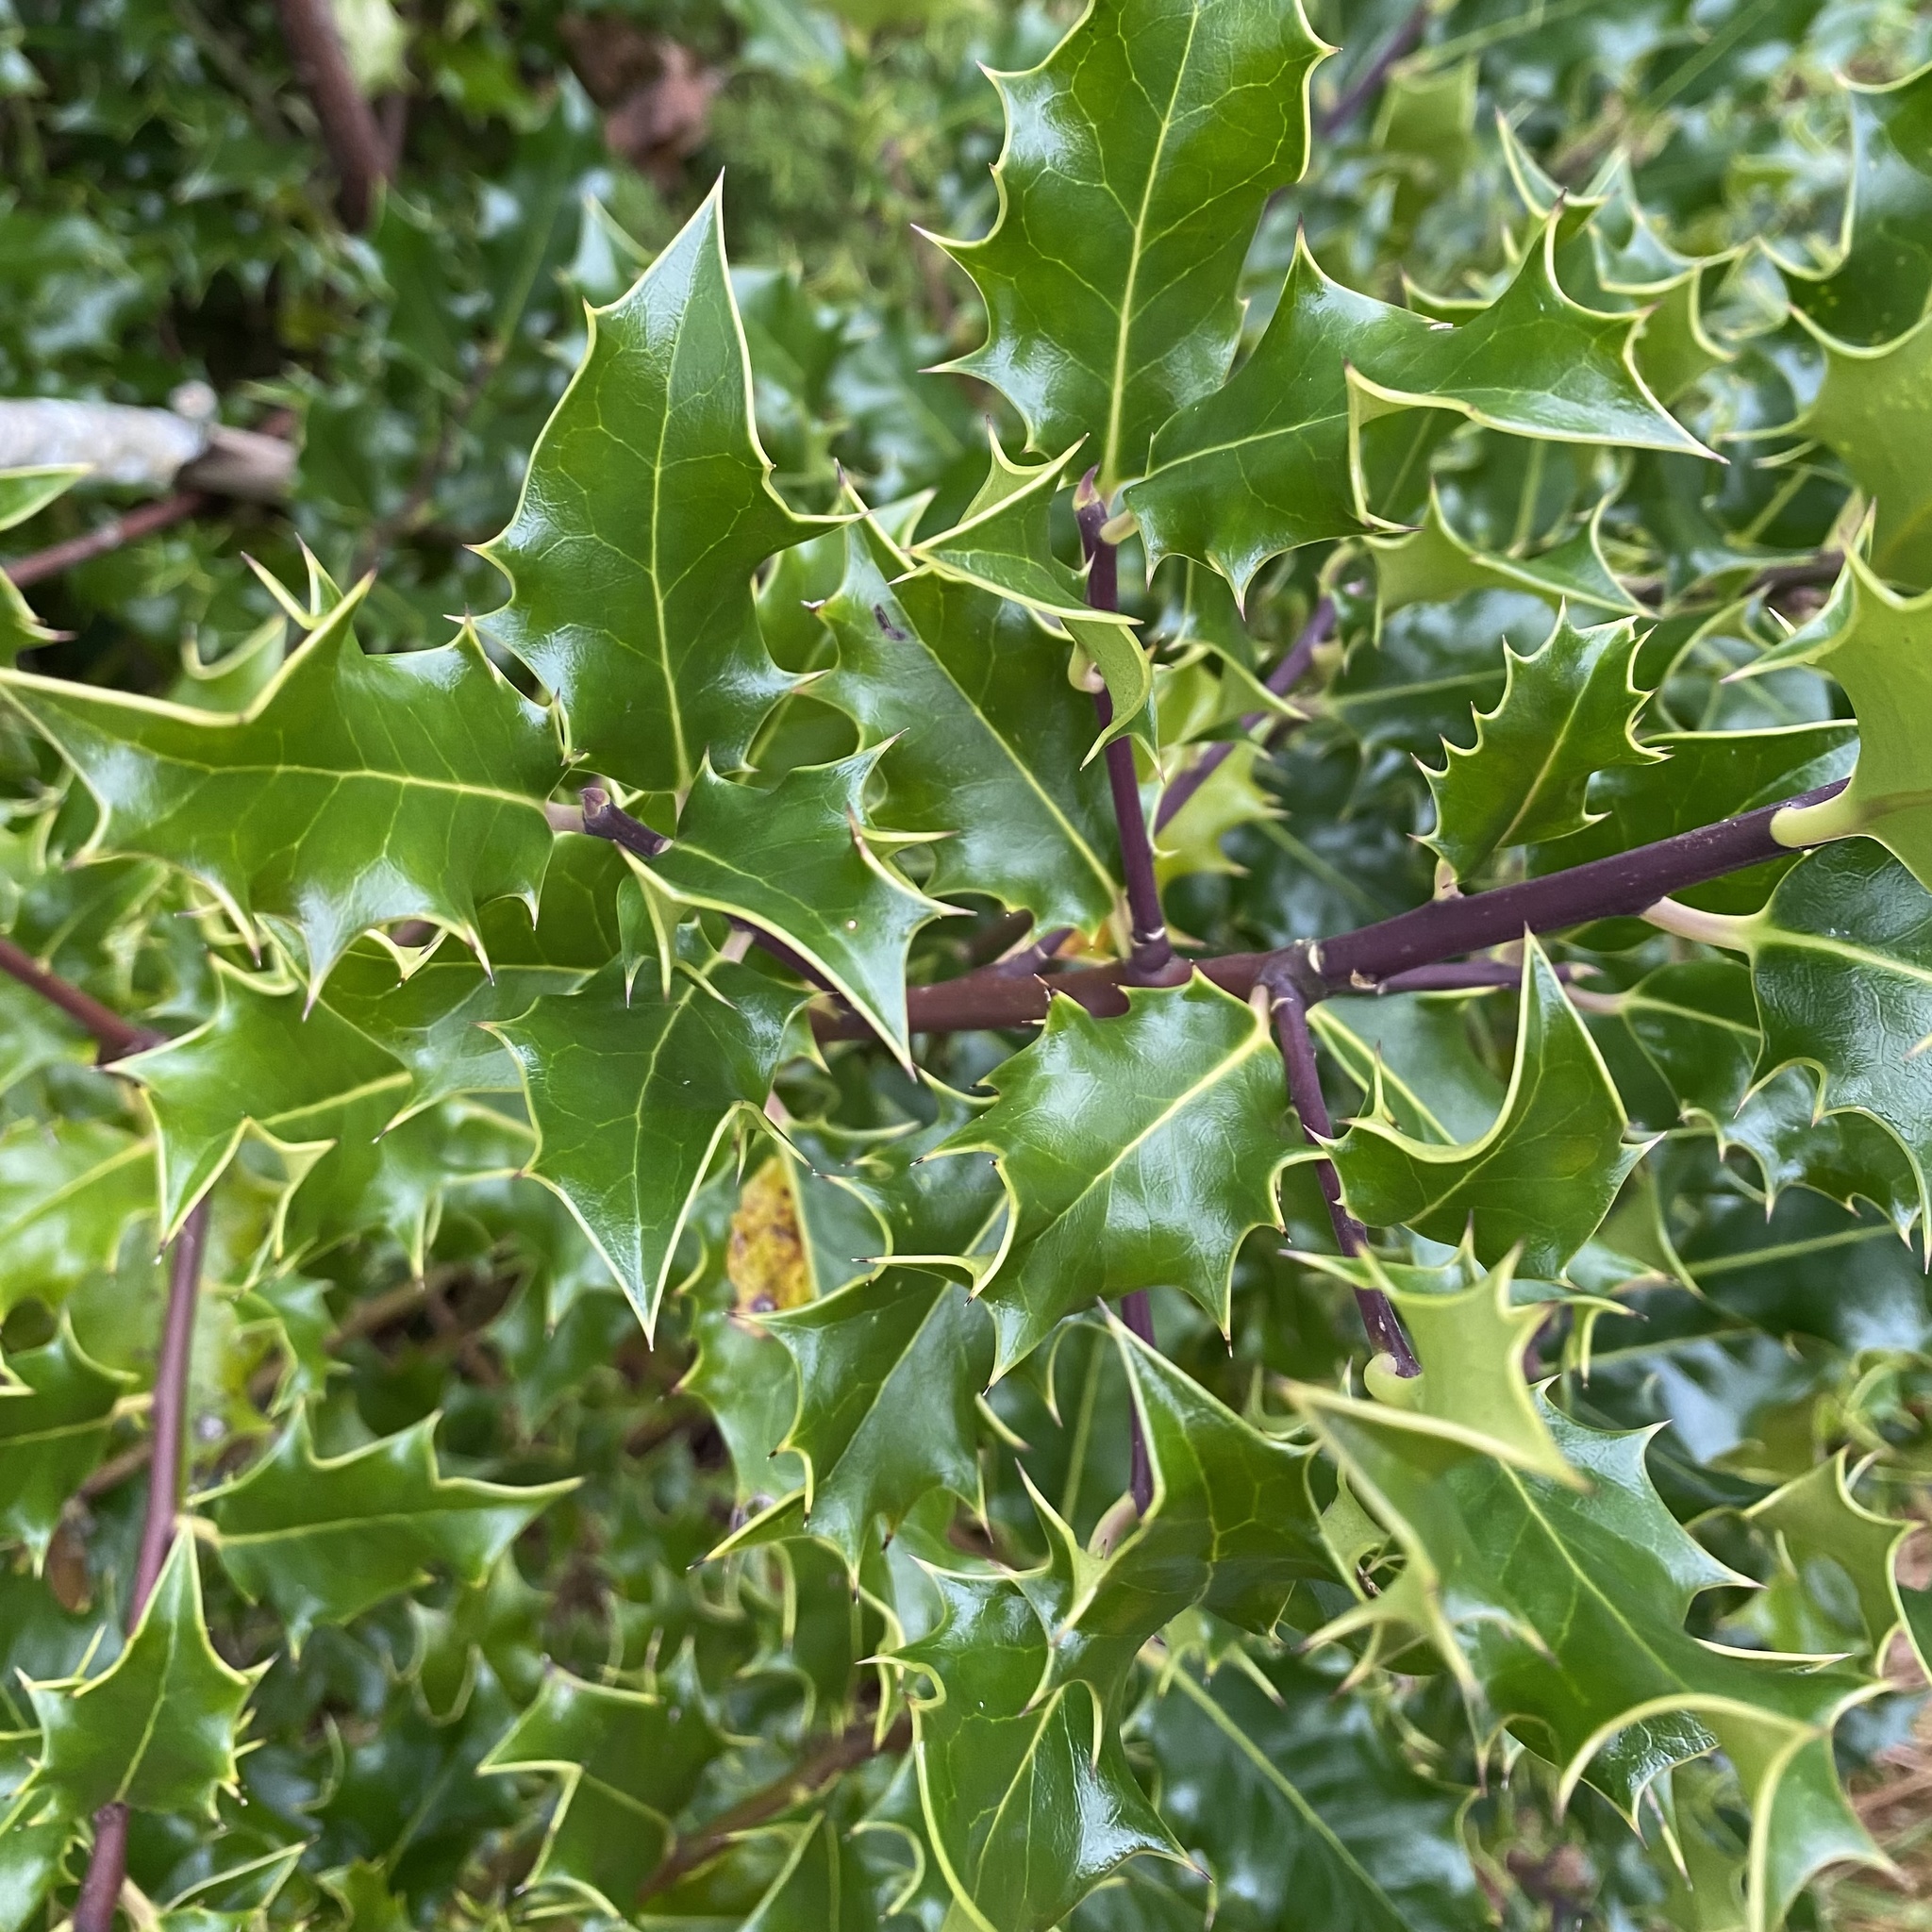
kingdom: Plantae
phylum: Tracheophyta
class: Magnoliopsida
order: Aquifoliales
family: Aquifoliaceae
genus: Ilex
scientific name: Ilex aquifolium
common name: English holly
